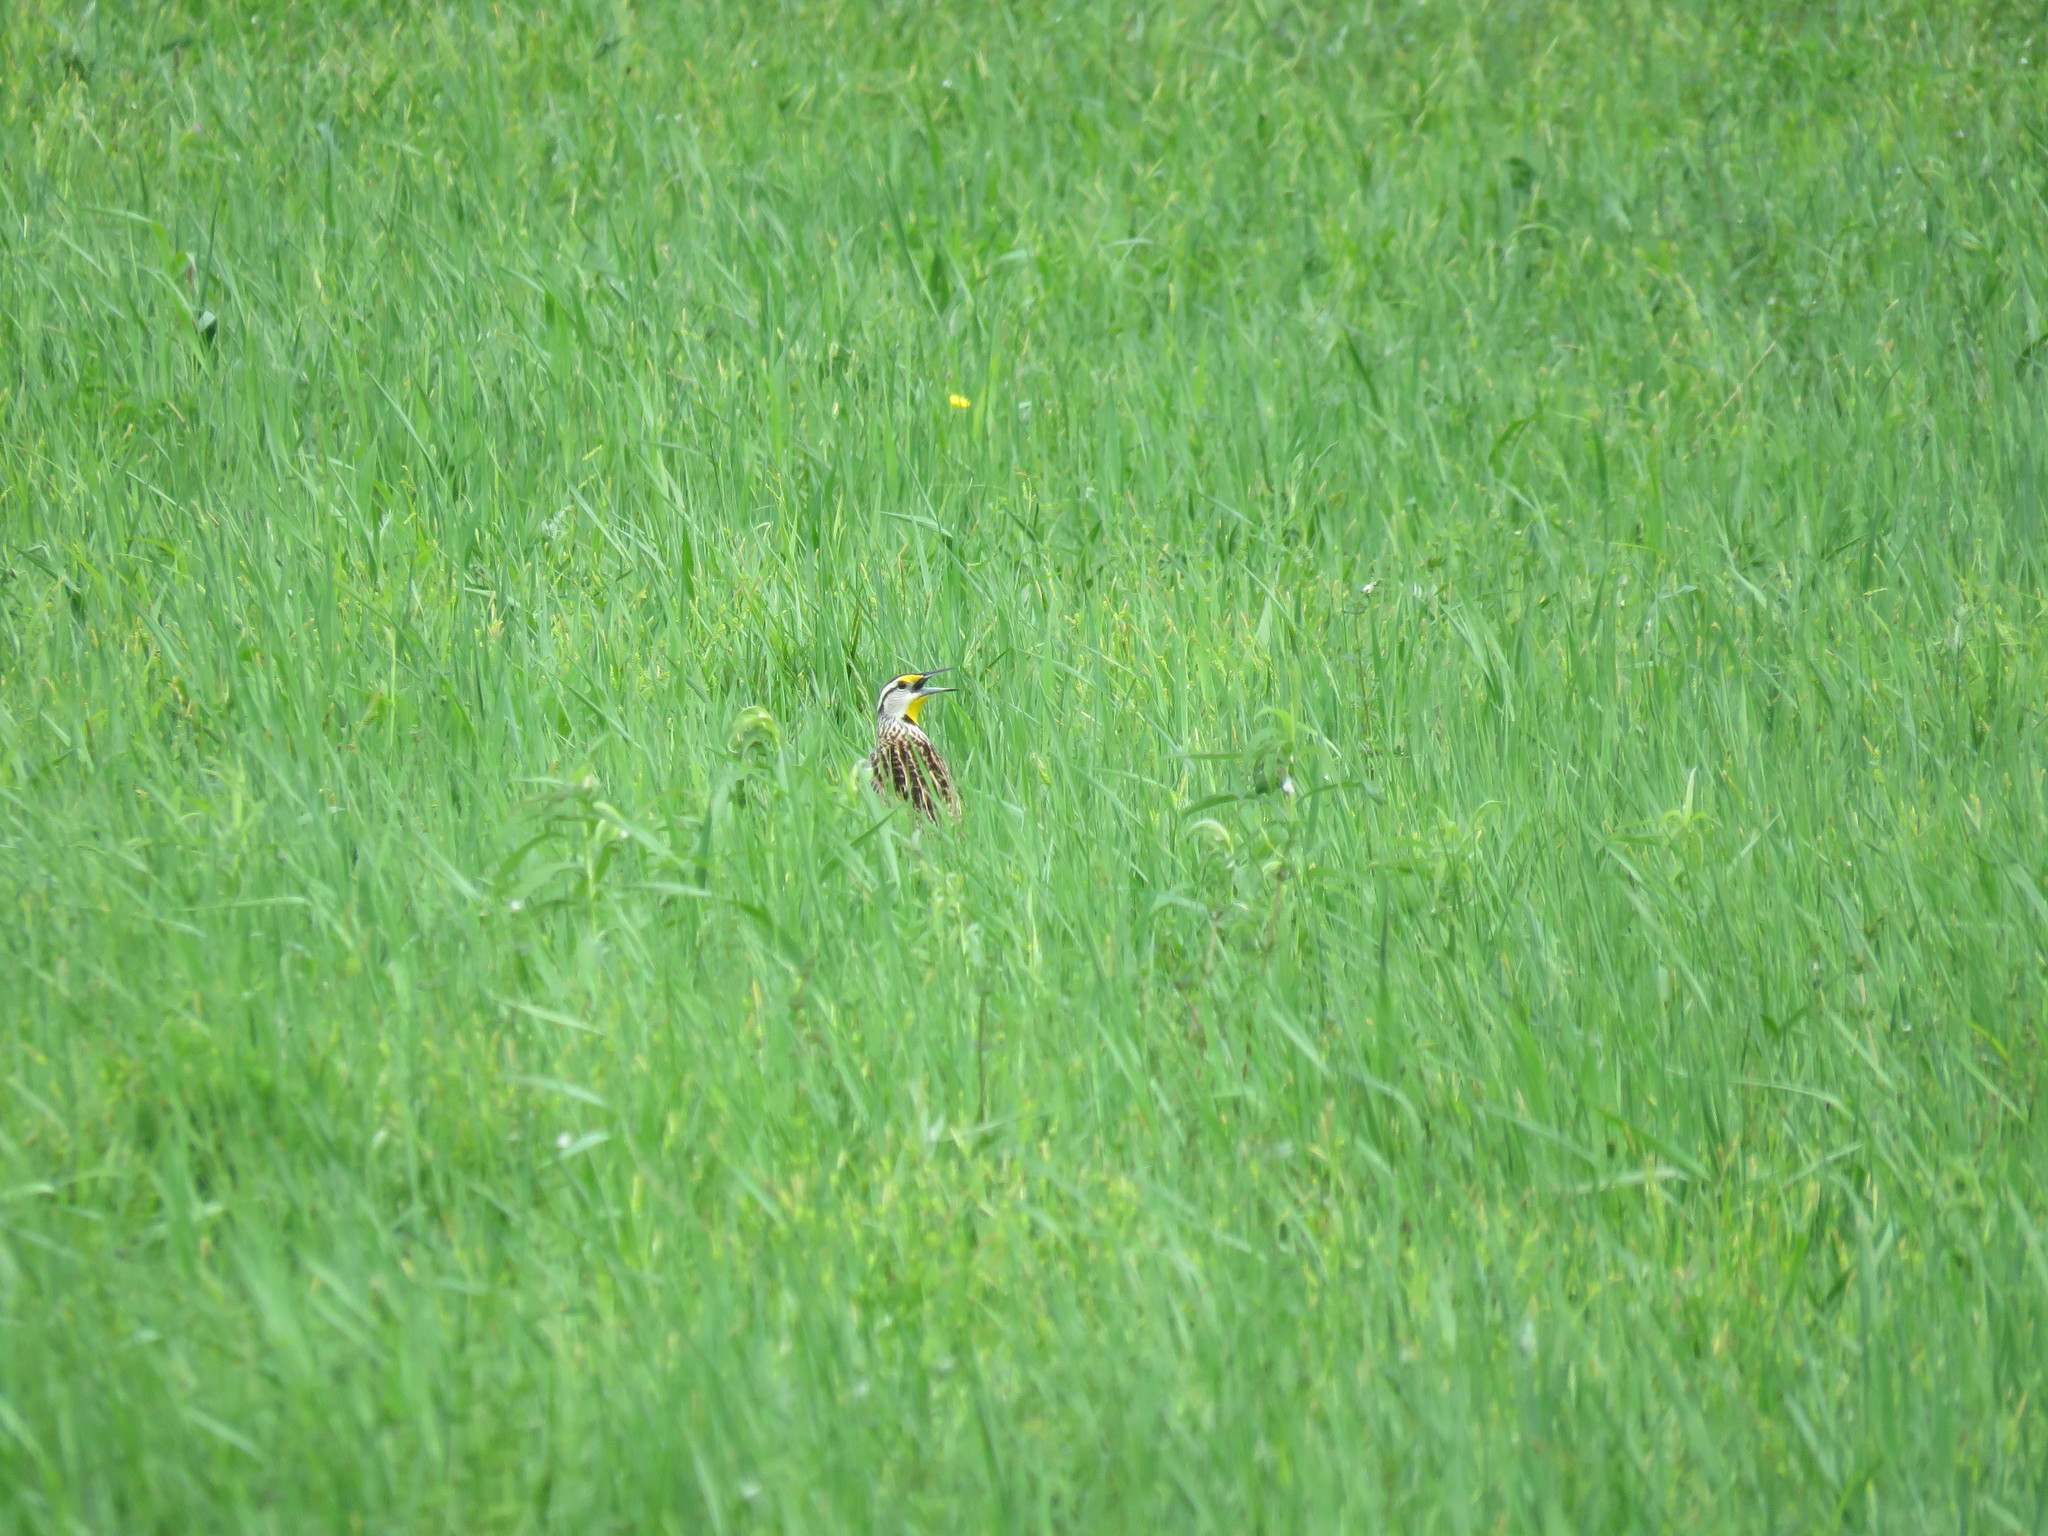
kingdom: Animalia
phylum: Chordata
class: Aves
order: Passeriformes
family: Icteridae
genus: Sturnella
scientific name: Sturnella magna
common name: Eastern meadowlark
